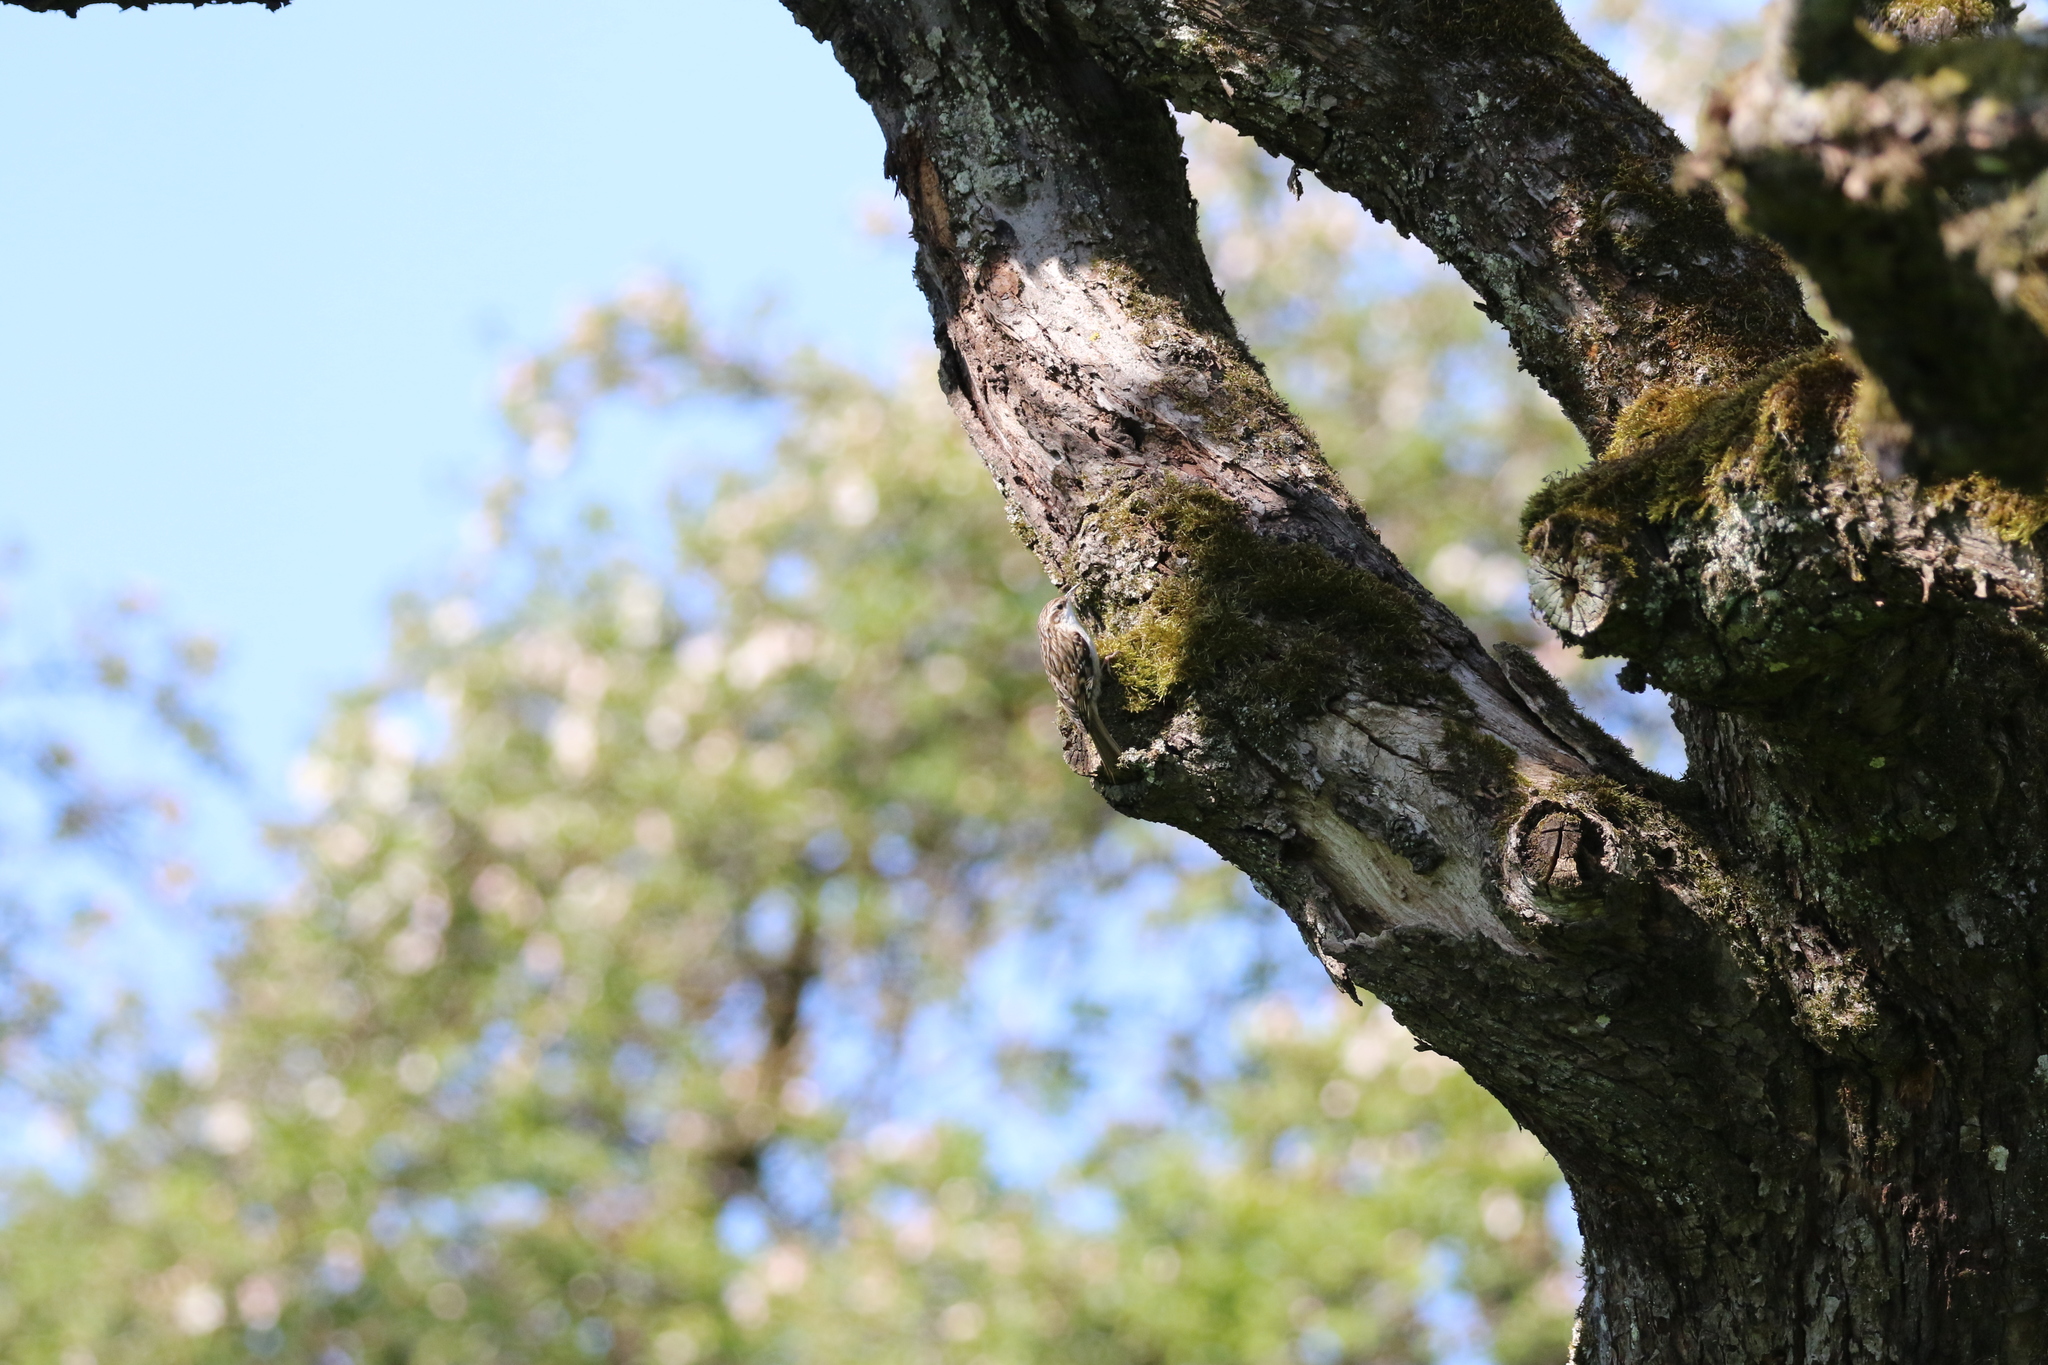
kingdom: Animalia
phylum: Chordata
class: Aves
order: Passeriformes
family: Certhiidae
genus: Certhia
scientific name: Certhia brachydactyla
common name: Short-toed treecreeper
